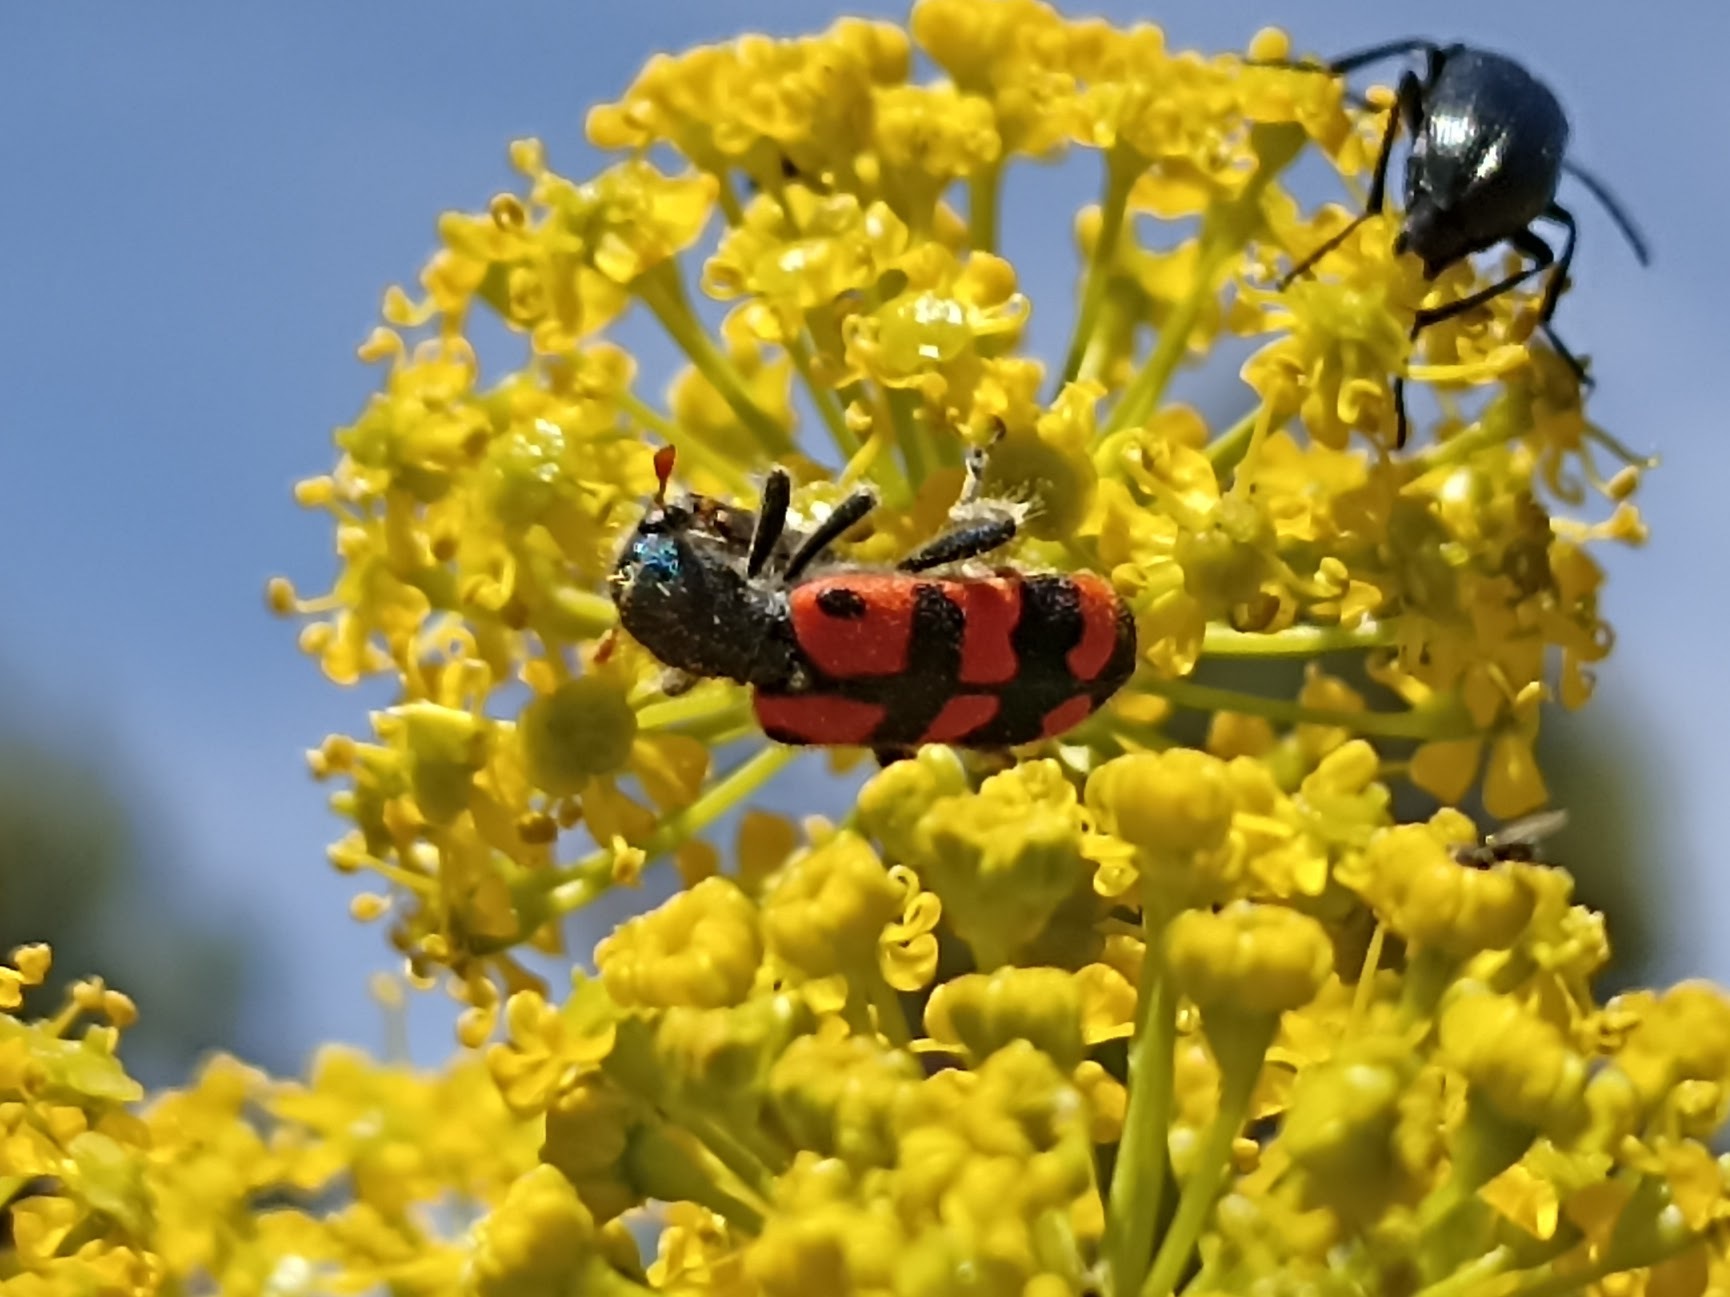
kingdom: Animalia
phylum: Arthropoda
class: Insecta
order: Coleoptera
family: Cleridae
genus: Trichodes
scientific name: Trichodes leucopsideus
